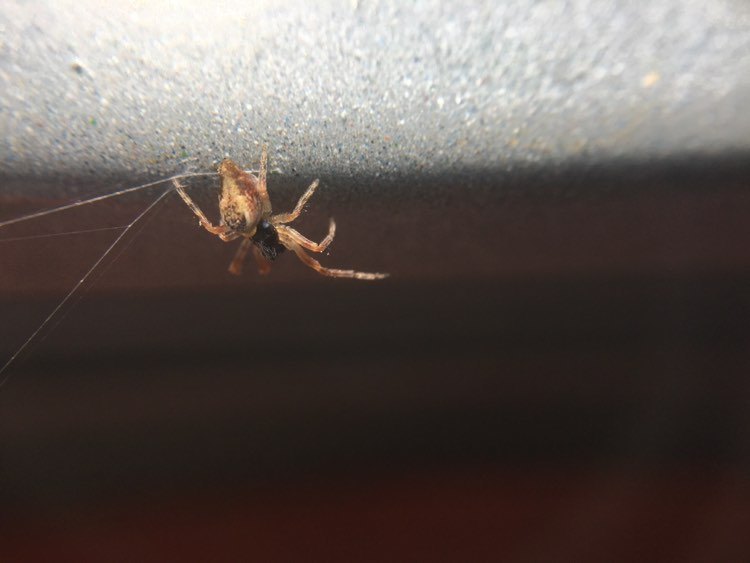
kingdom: Animalia
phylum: Arthropoda
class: Arachnida
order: Araneae
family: Araneidae
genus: Cyclosa
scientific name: Cyclosa conica
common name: Conical trashline orbweaver
